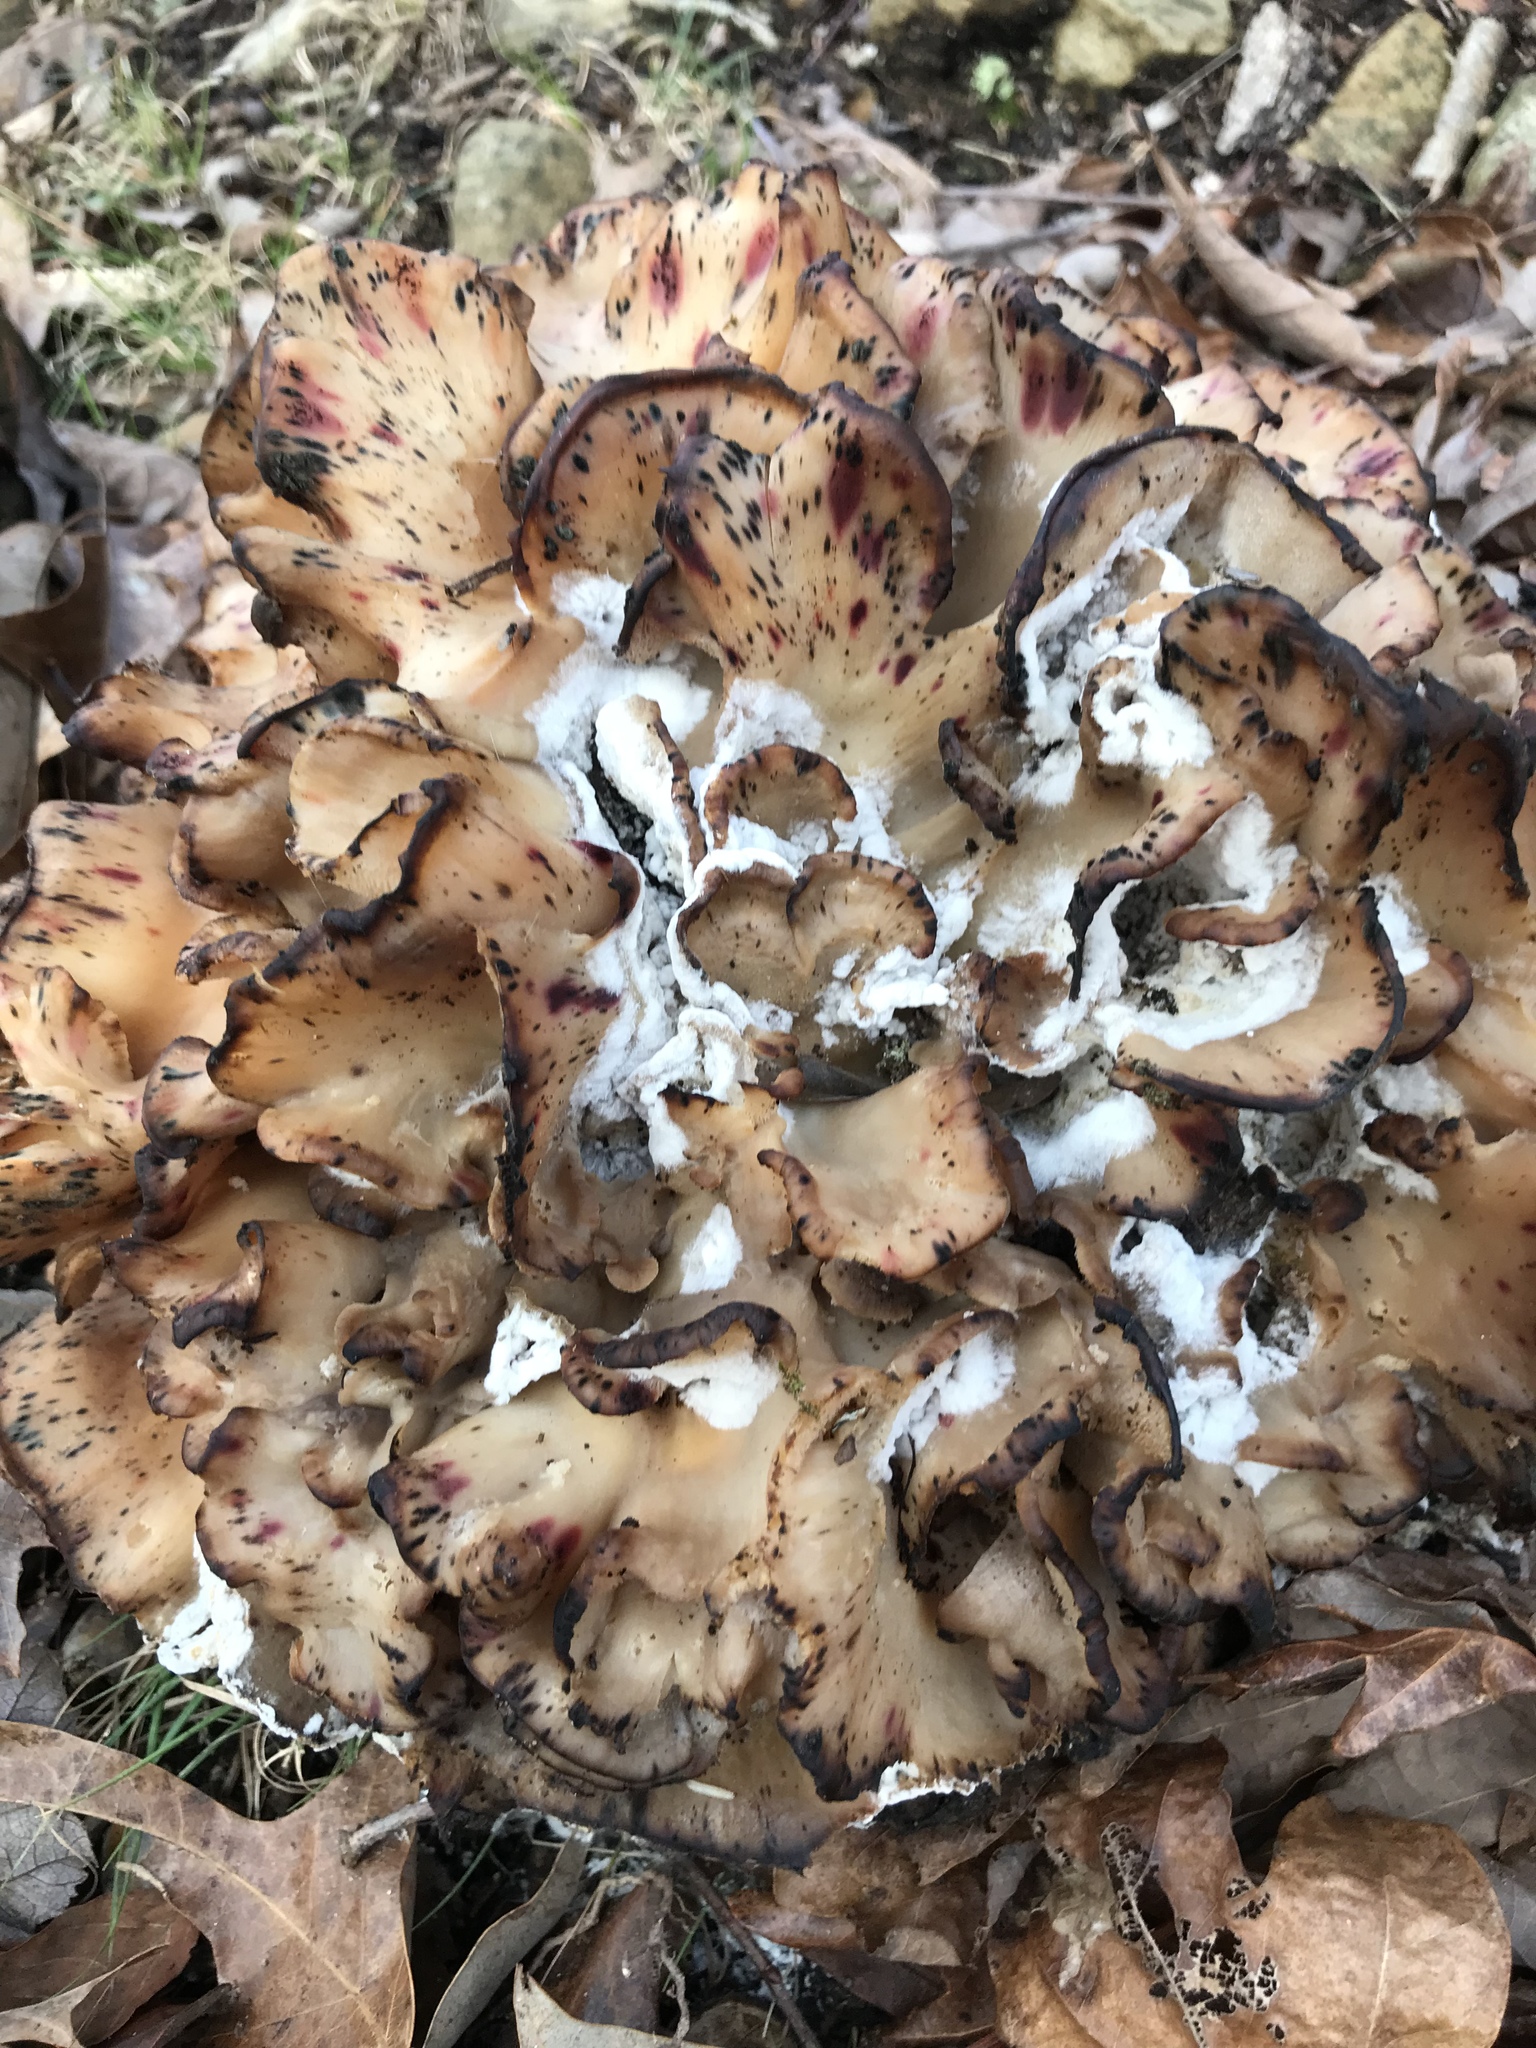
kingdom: Fungi
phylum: Basidiomycota
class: Agaricomycetes
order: Polyporales
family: Grifolaceae
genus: Grifola
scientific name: Grifola frondosa
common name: Hen of the woods
